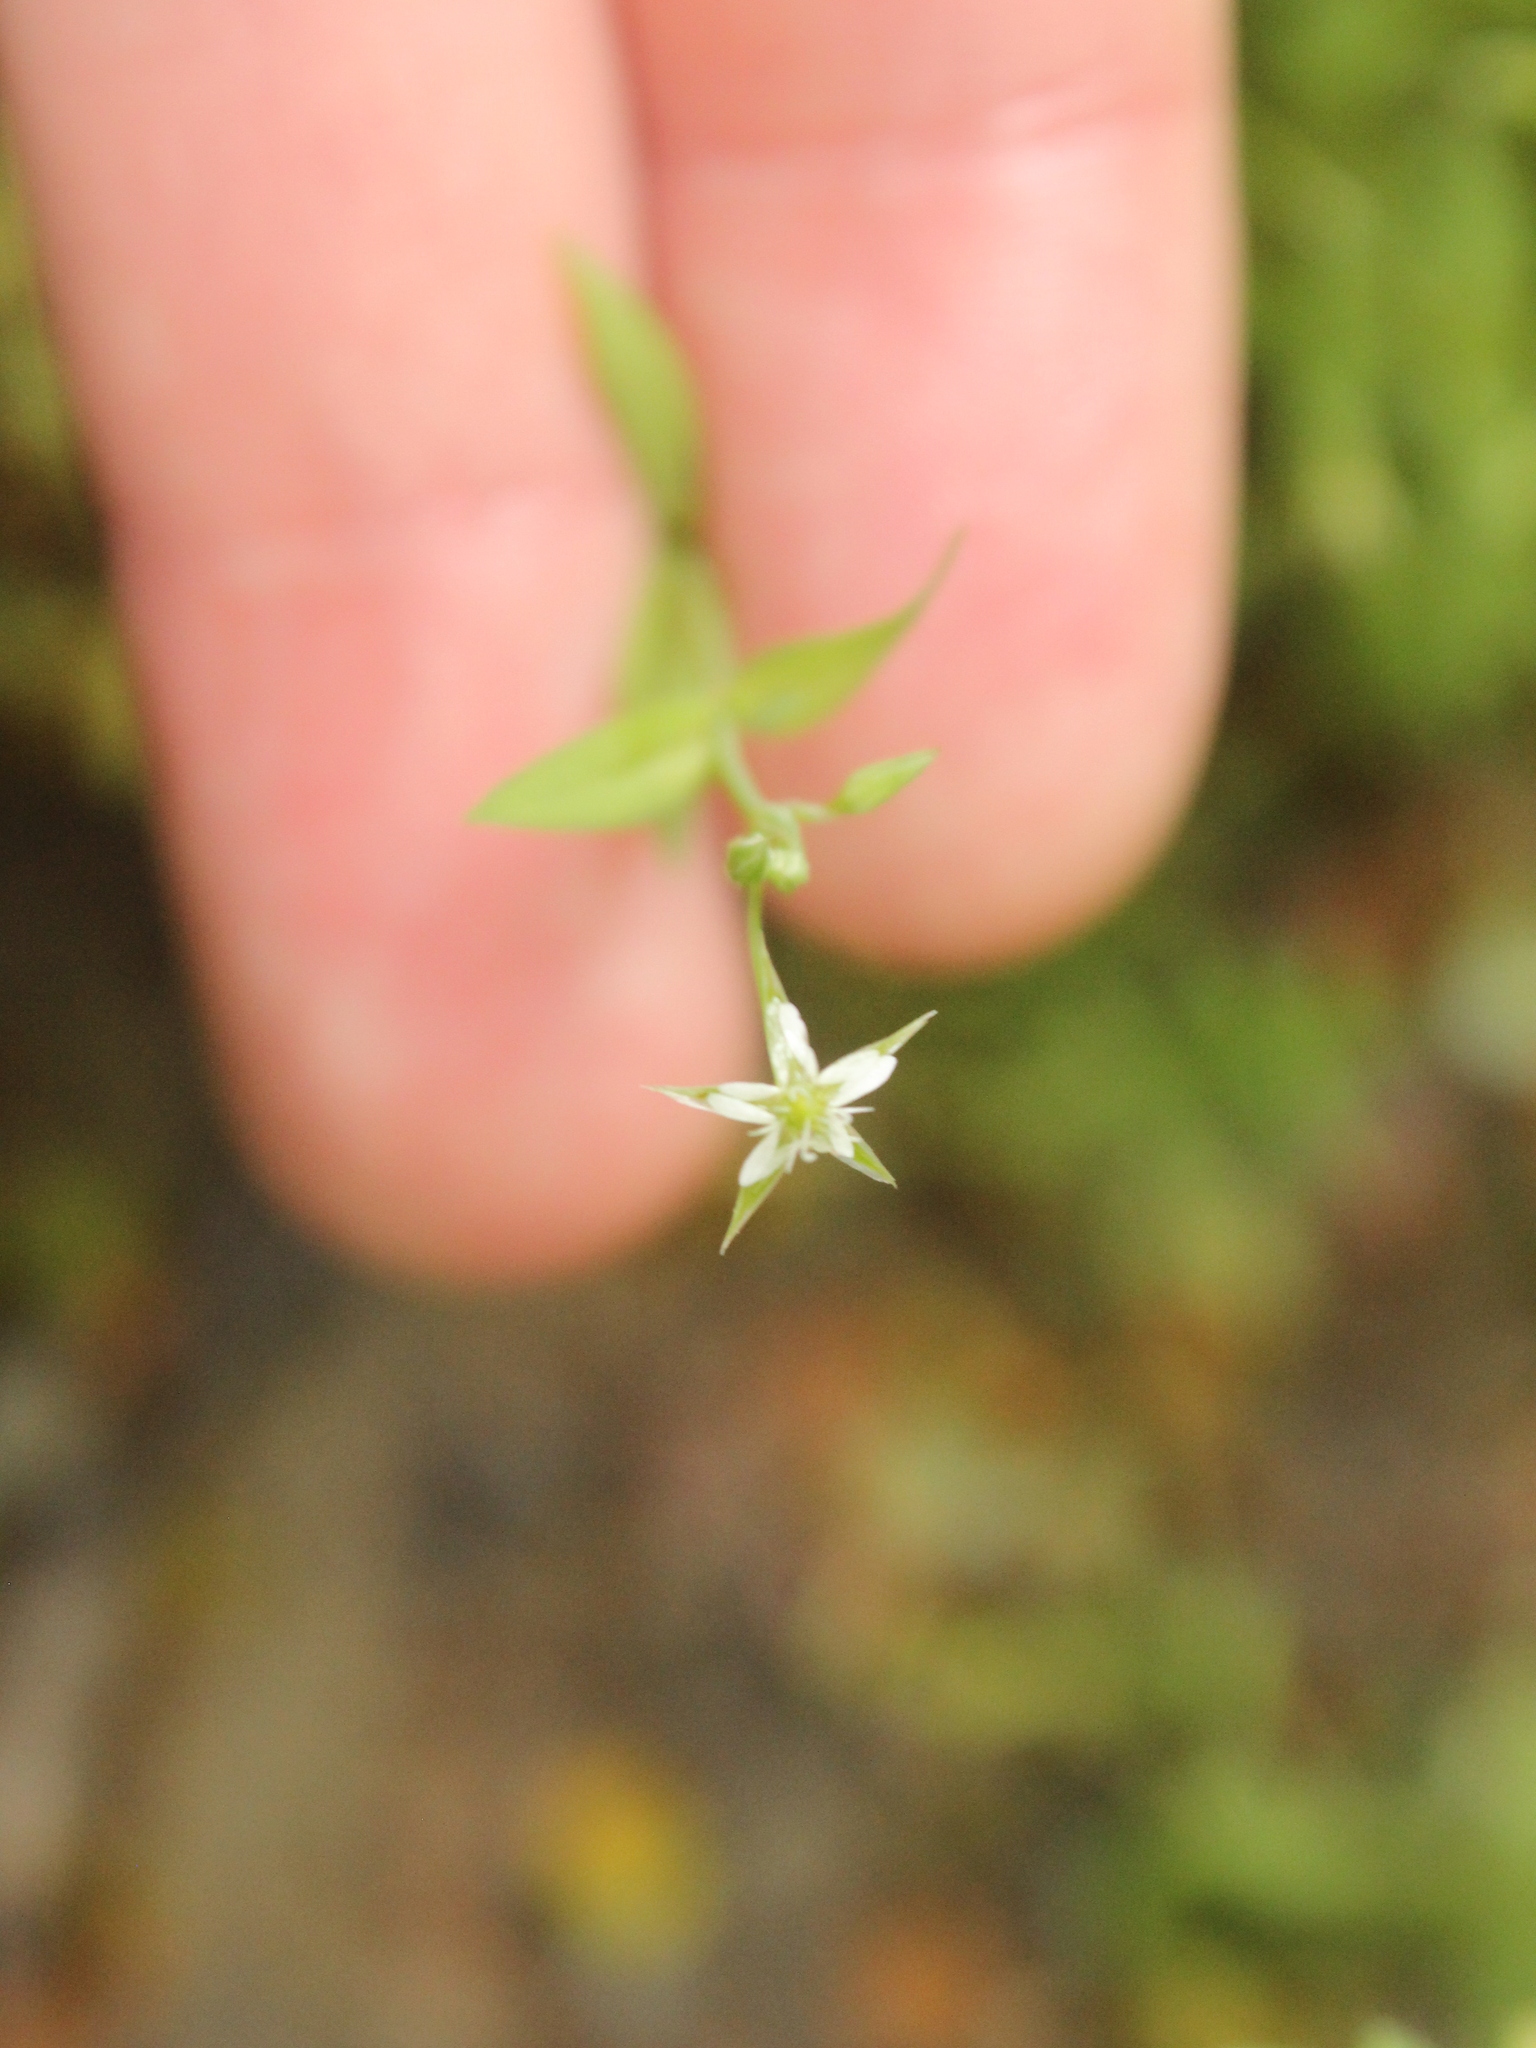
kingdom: Plantae
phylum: Tracheophyta
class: Magnoliopsida
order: Caryophyllales
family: Caryophyllaceae
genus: Stellaria
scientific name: Stellaria alsine
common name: Bog stitchwort
